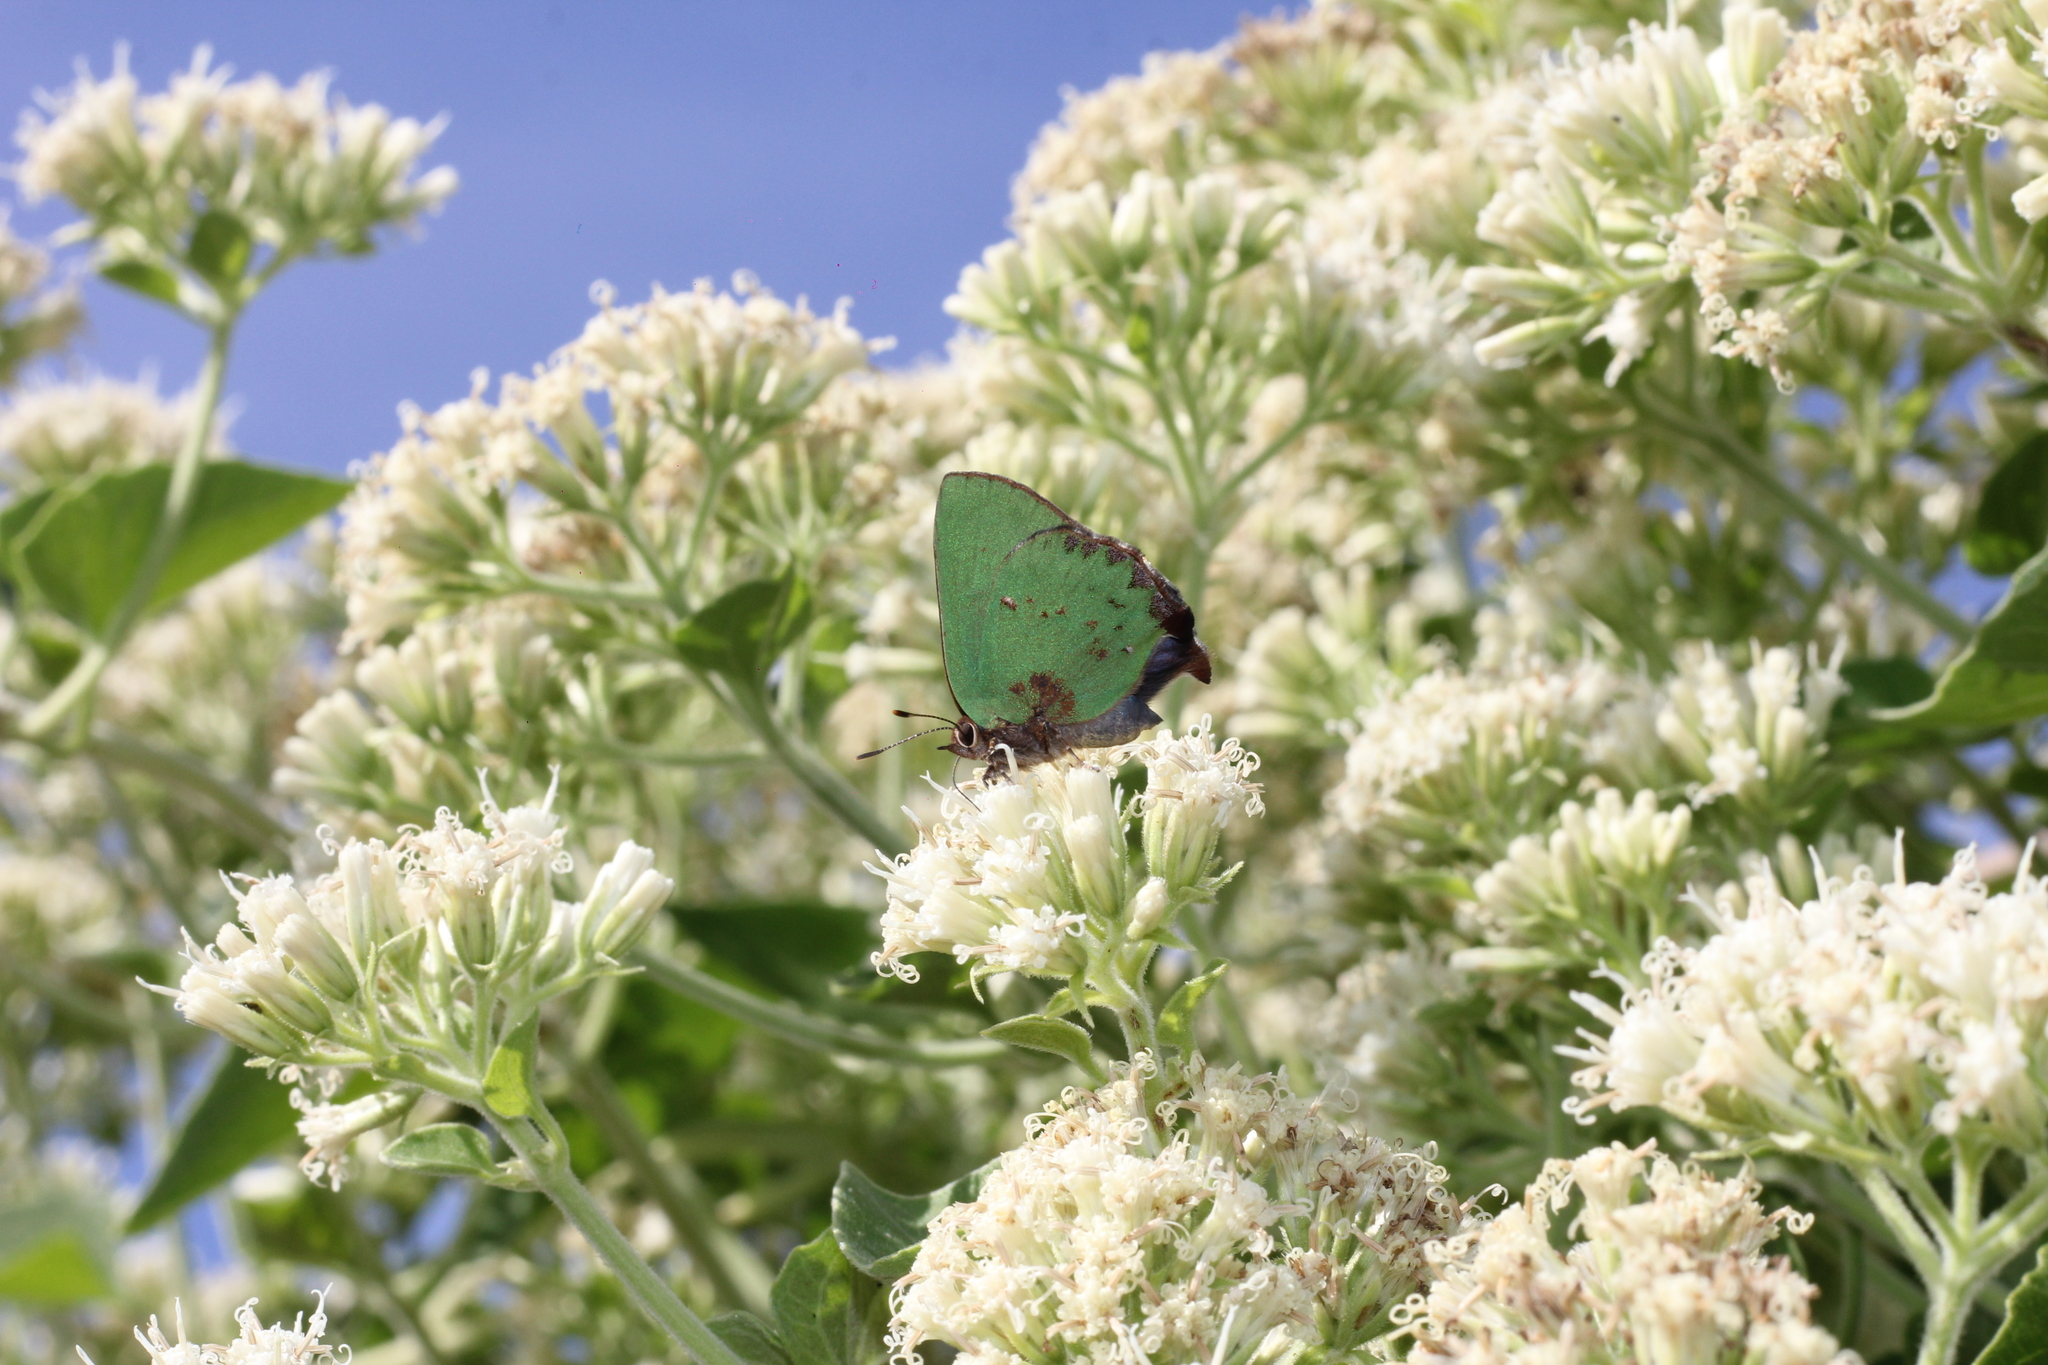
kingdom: Animalia
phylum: Arthropoda
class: Insecta
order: Lepidoptera
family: Lycaenidae
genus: Cyanophrys
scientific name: Cyanophrys
